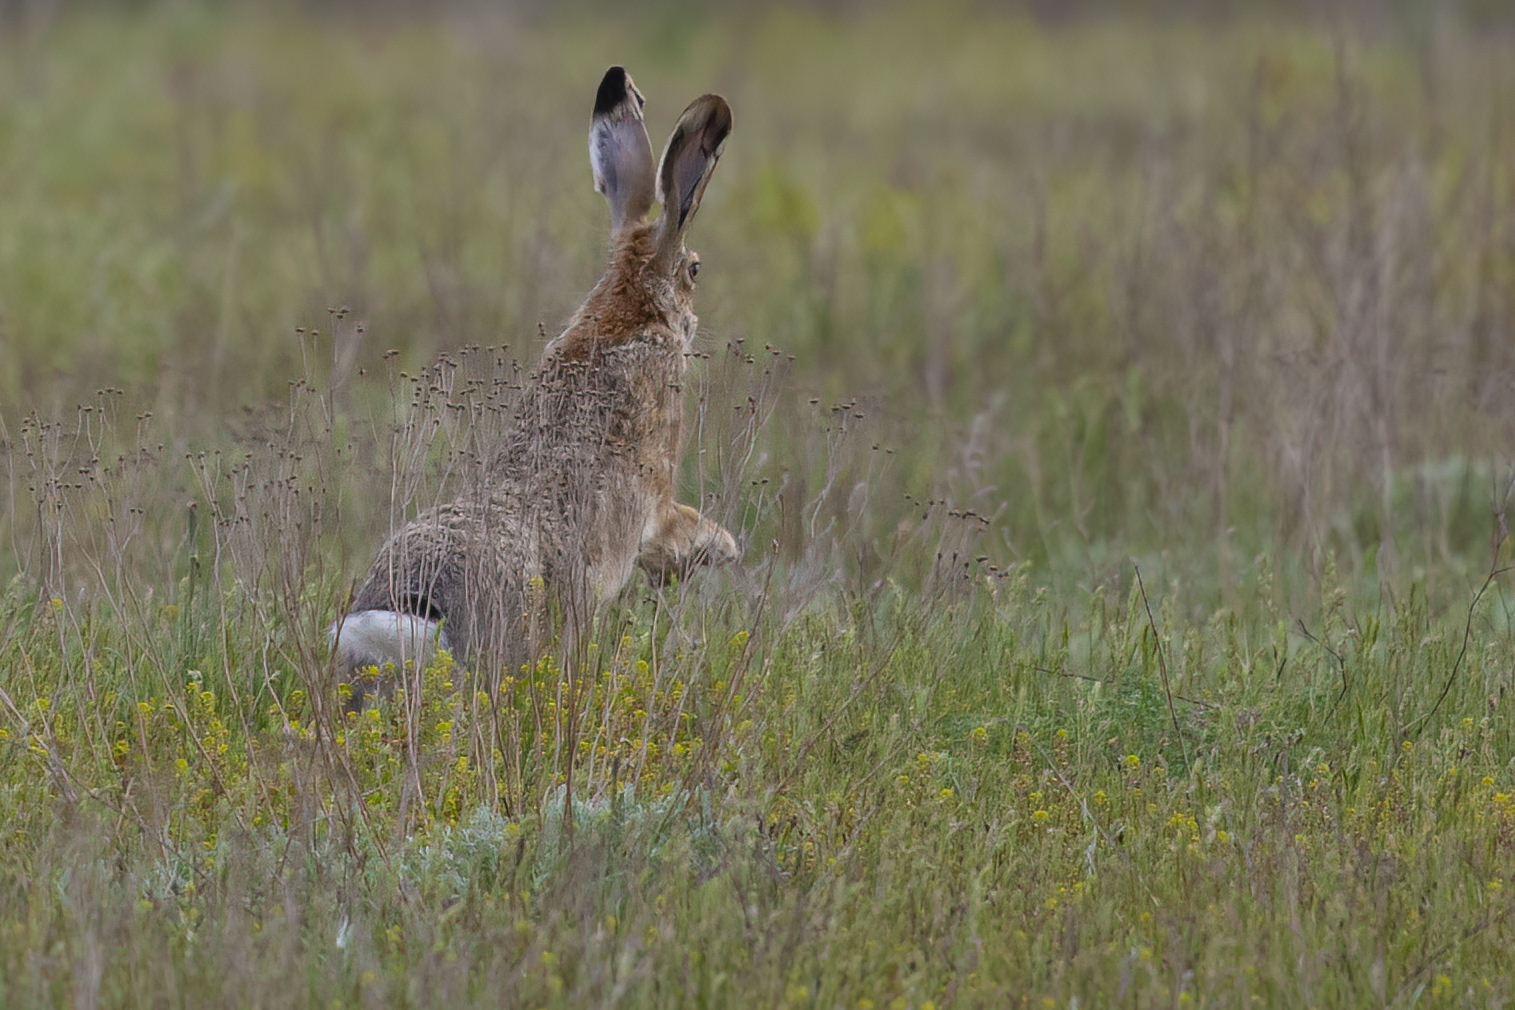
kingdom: Animalia
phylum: Chordata
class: Mammalia
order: Lagomorpha
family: Leporidae
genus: Lepus
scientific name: Lepus europaeus
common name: European hare
